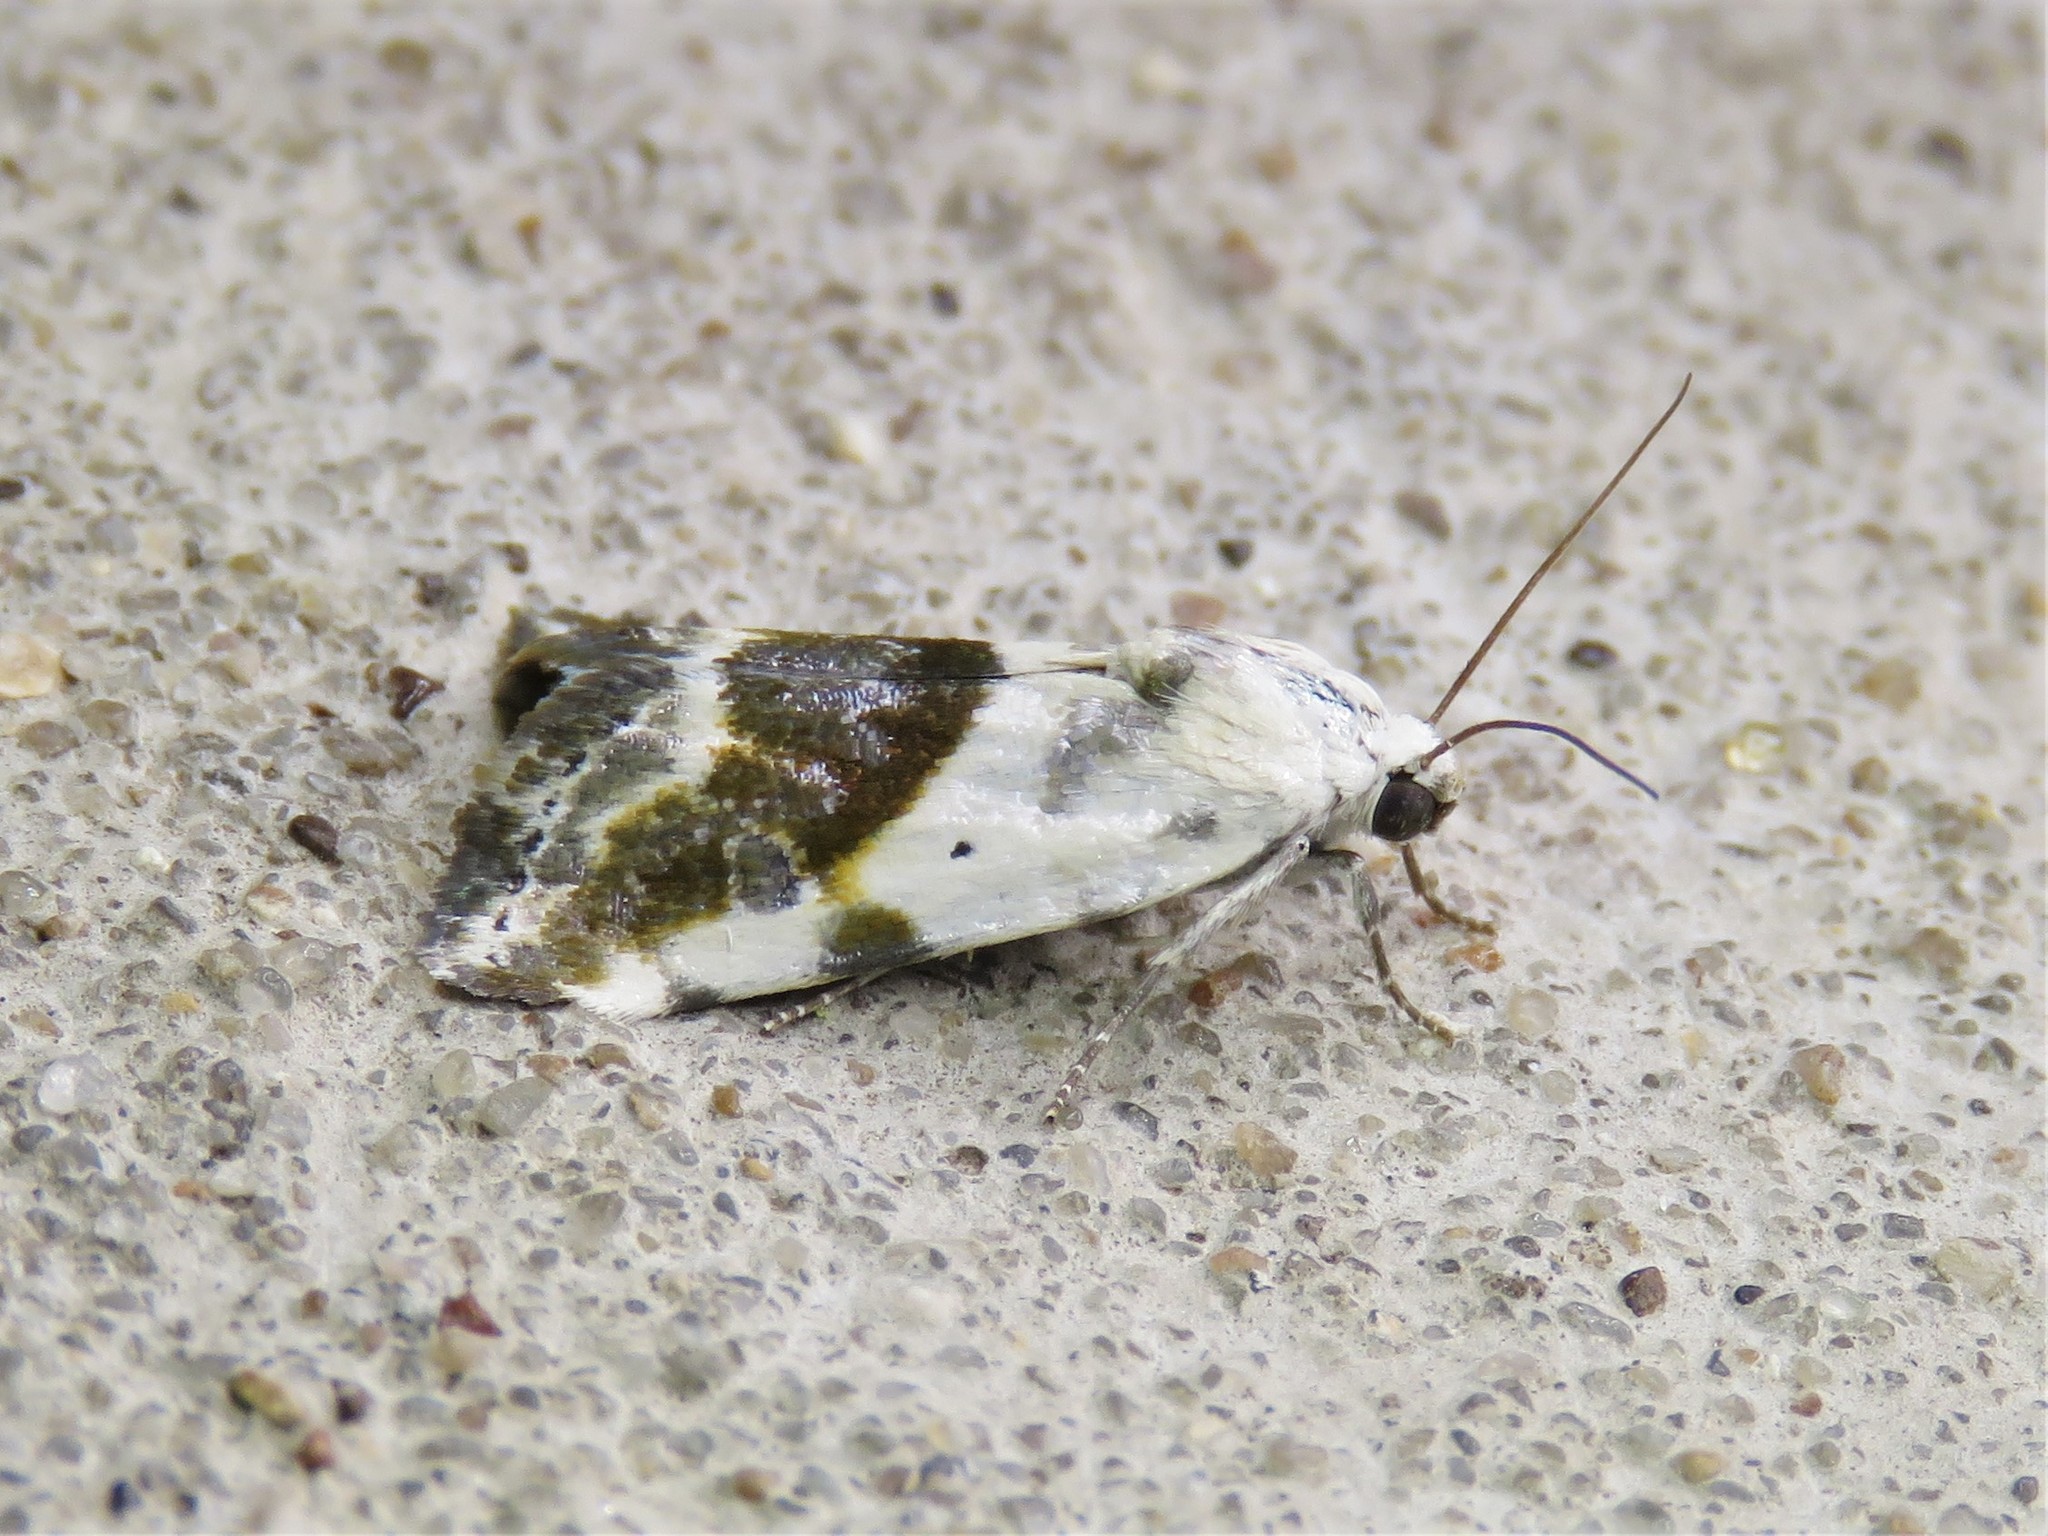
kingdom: Animalia
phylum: Arthropoda
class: Insecta
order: Lepidoptera
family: Noctuidae
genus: Acontia
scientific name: Acontia candefacta
